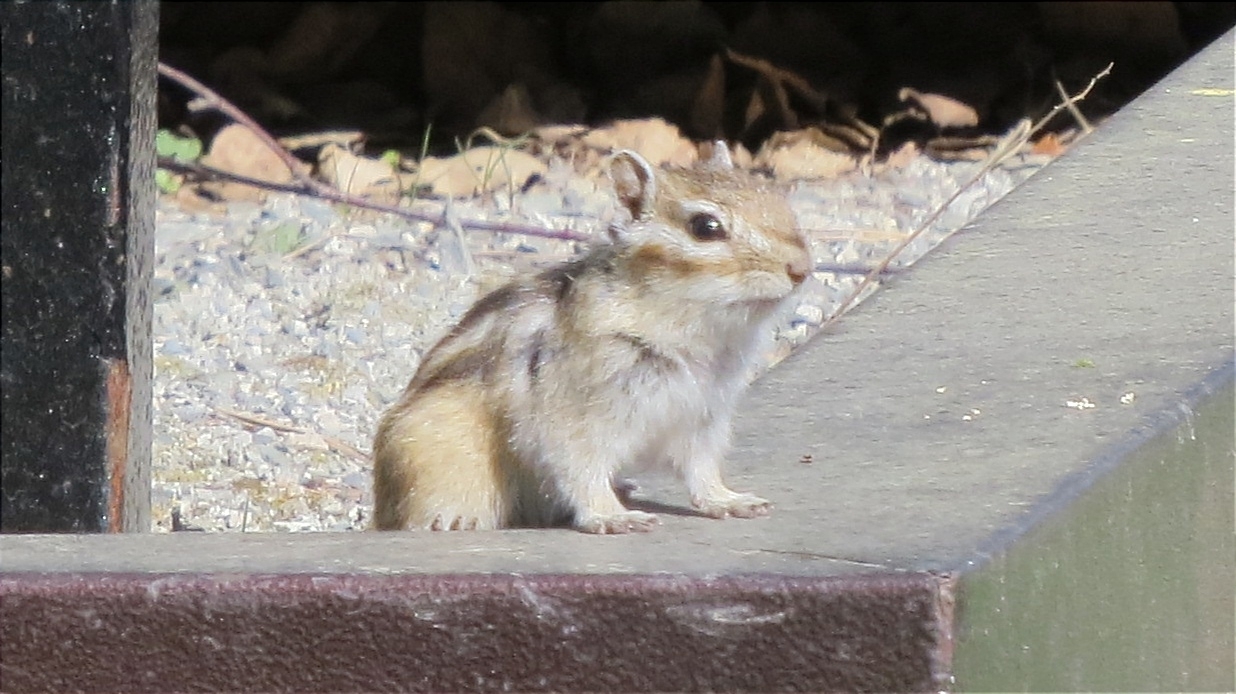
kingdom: Animalia
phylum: Chordata
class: Mammalia
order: Rodentia
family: Sciuridae
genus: Tamias
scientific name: Tamias sibiricus
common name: Siberian chipmunk
